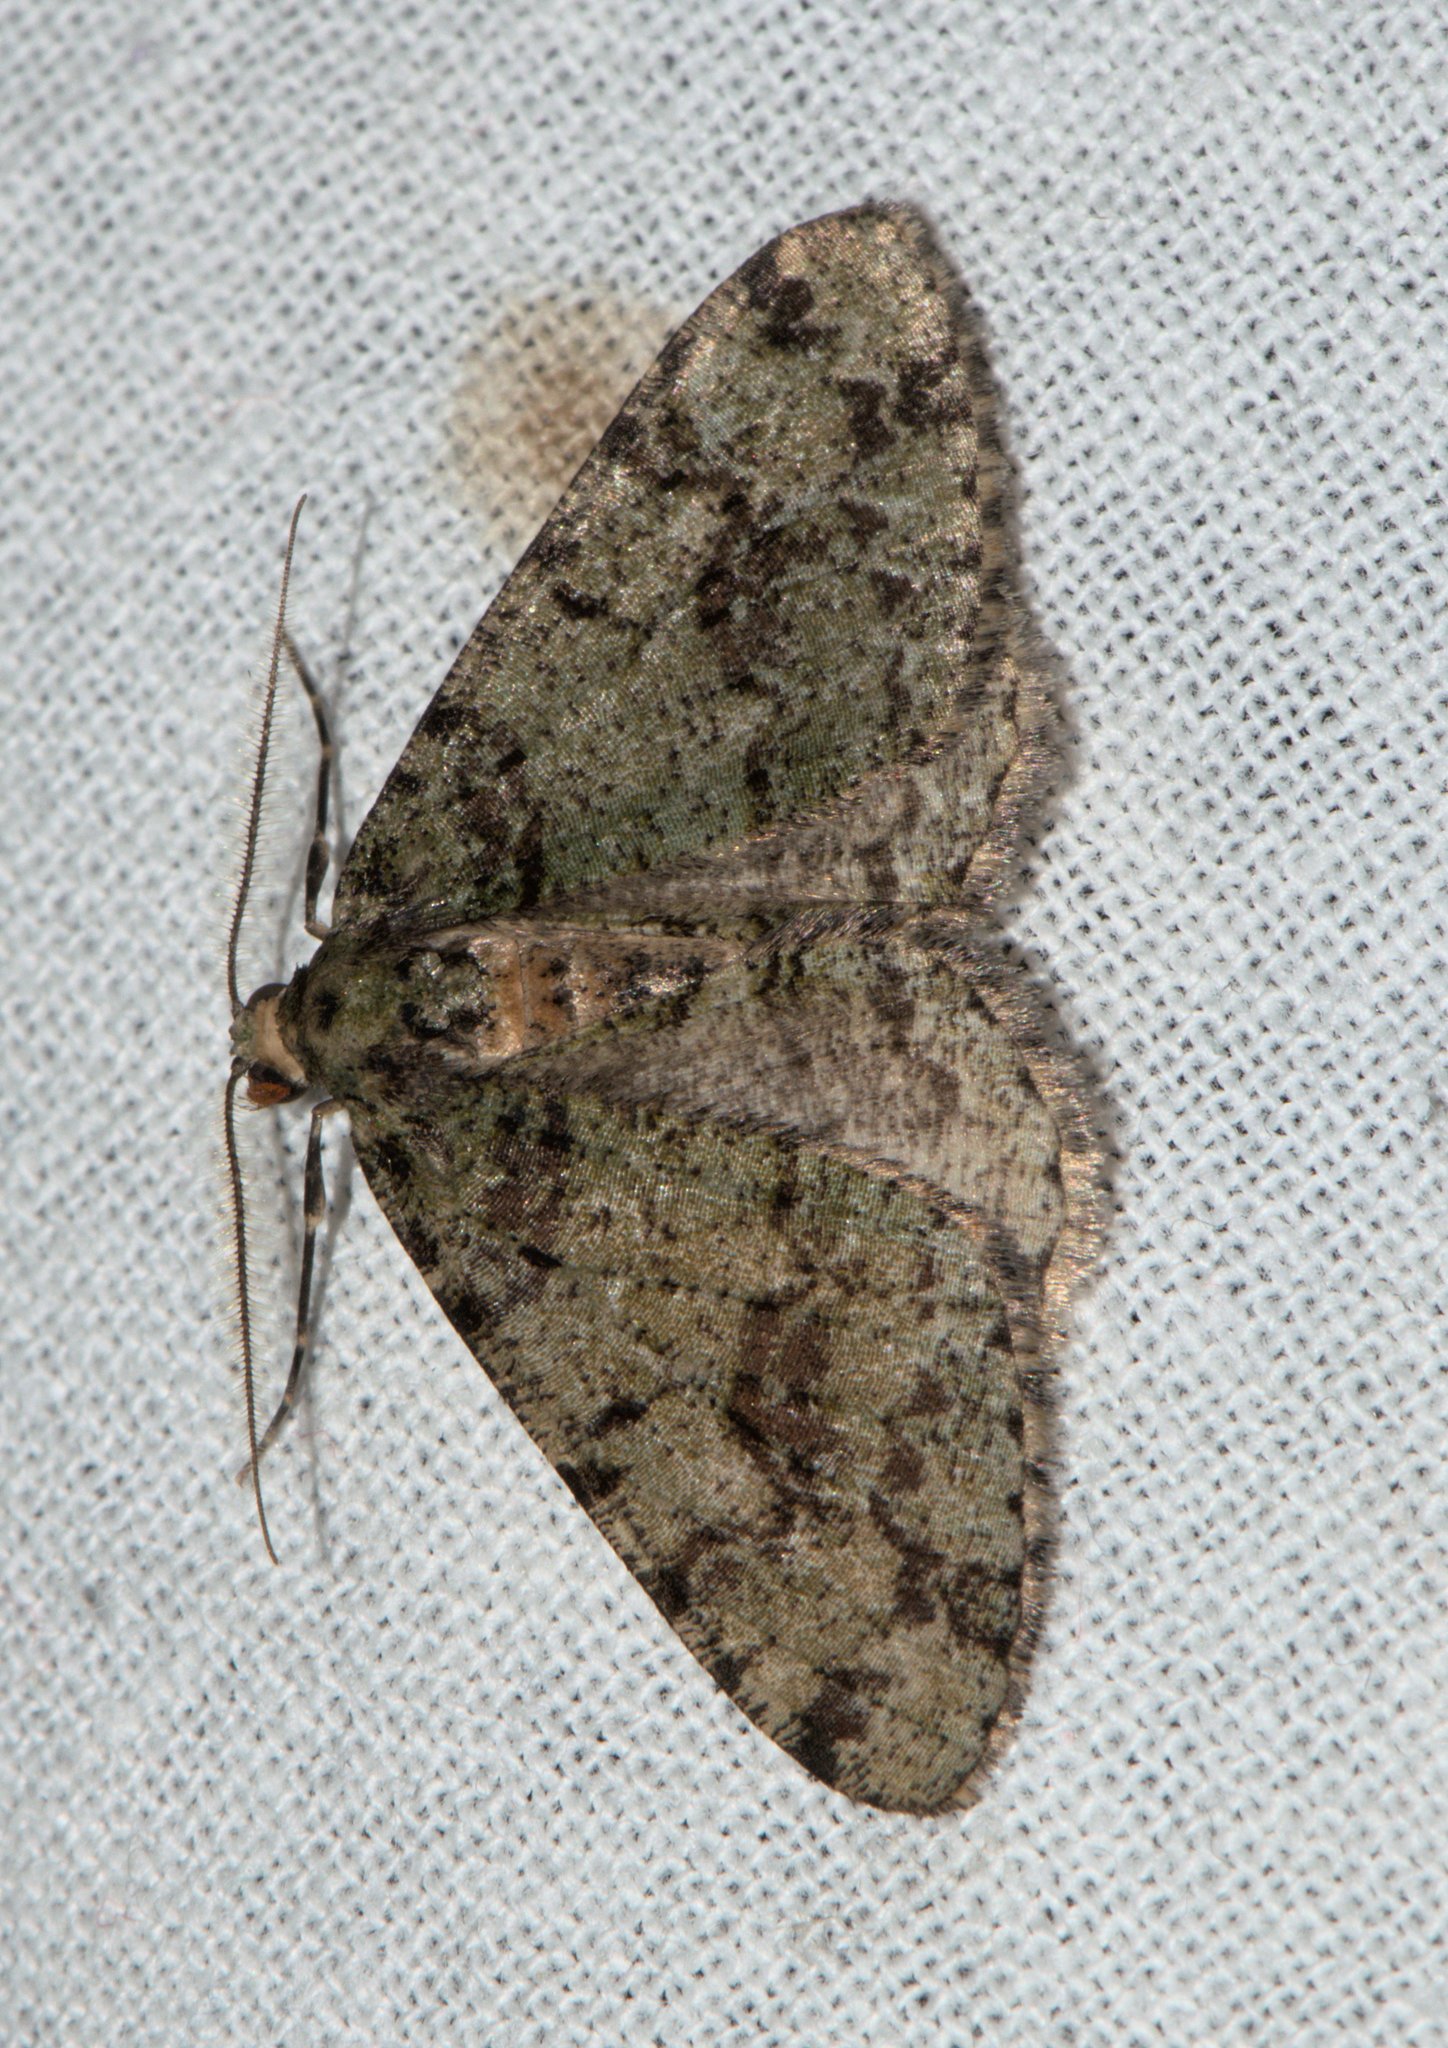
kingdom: Animalia
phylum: Arthropoda
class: Insecta
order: Lepidoptera
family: Geometridae
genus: Myrioblephara
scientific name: Myrioblephara duplexa
